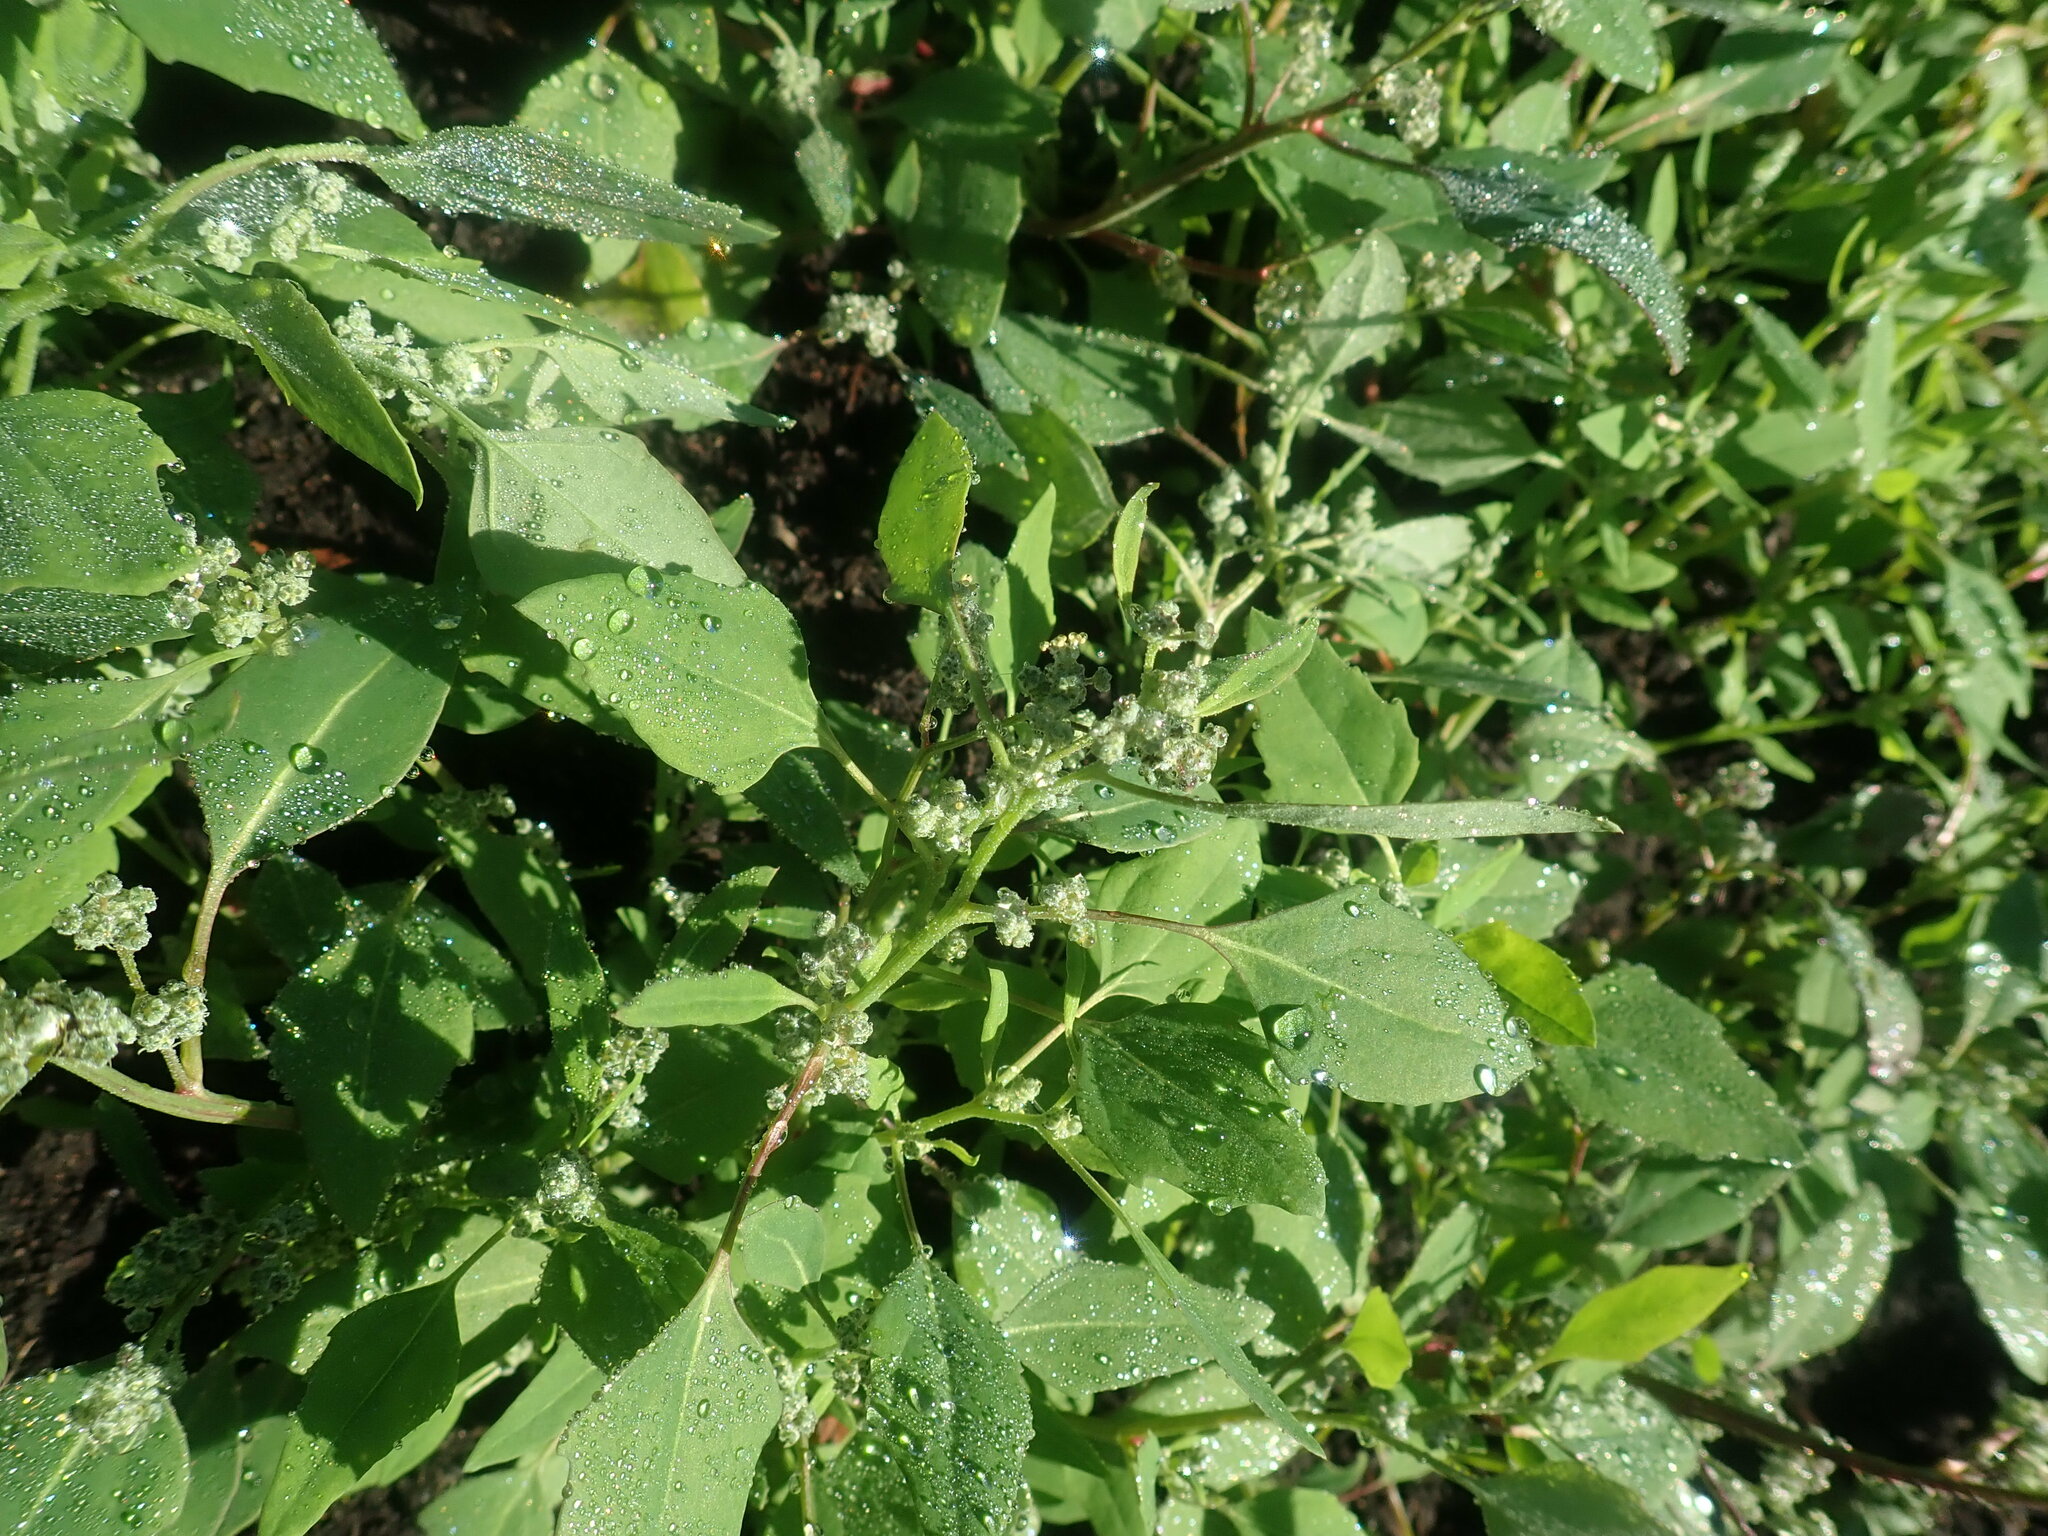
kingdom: Plantae
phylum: Tracheophyta
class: Magnoliopsida
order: Caryophyllales
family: Amaranthaceae
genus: Chenopodium
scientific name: Chenopodium album
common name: Fat-hen
